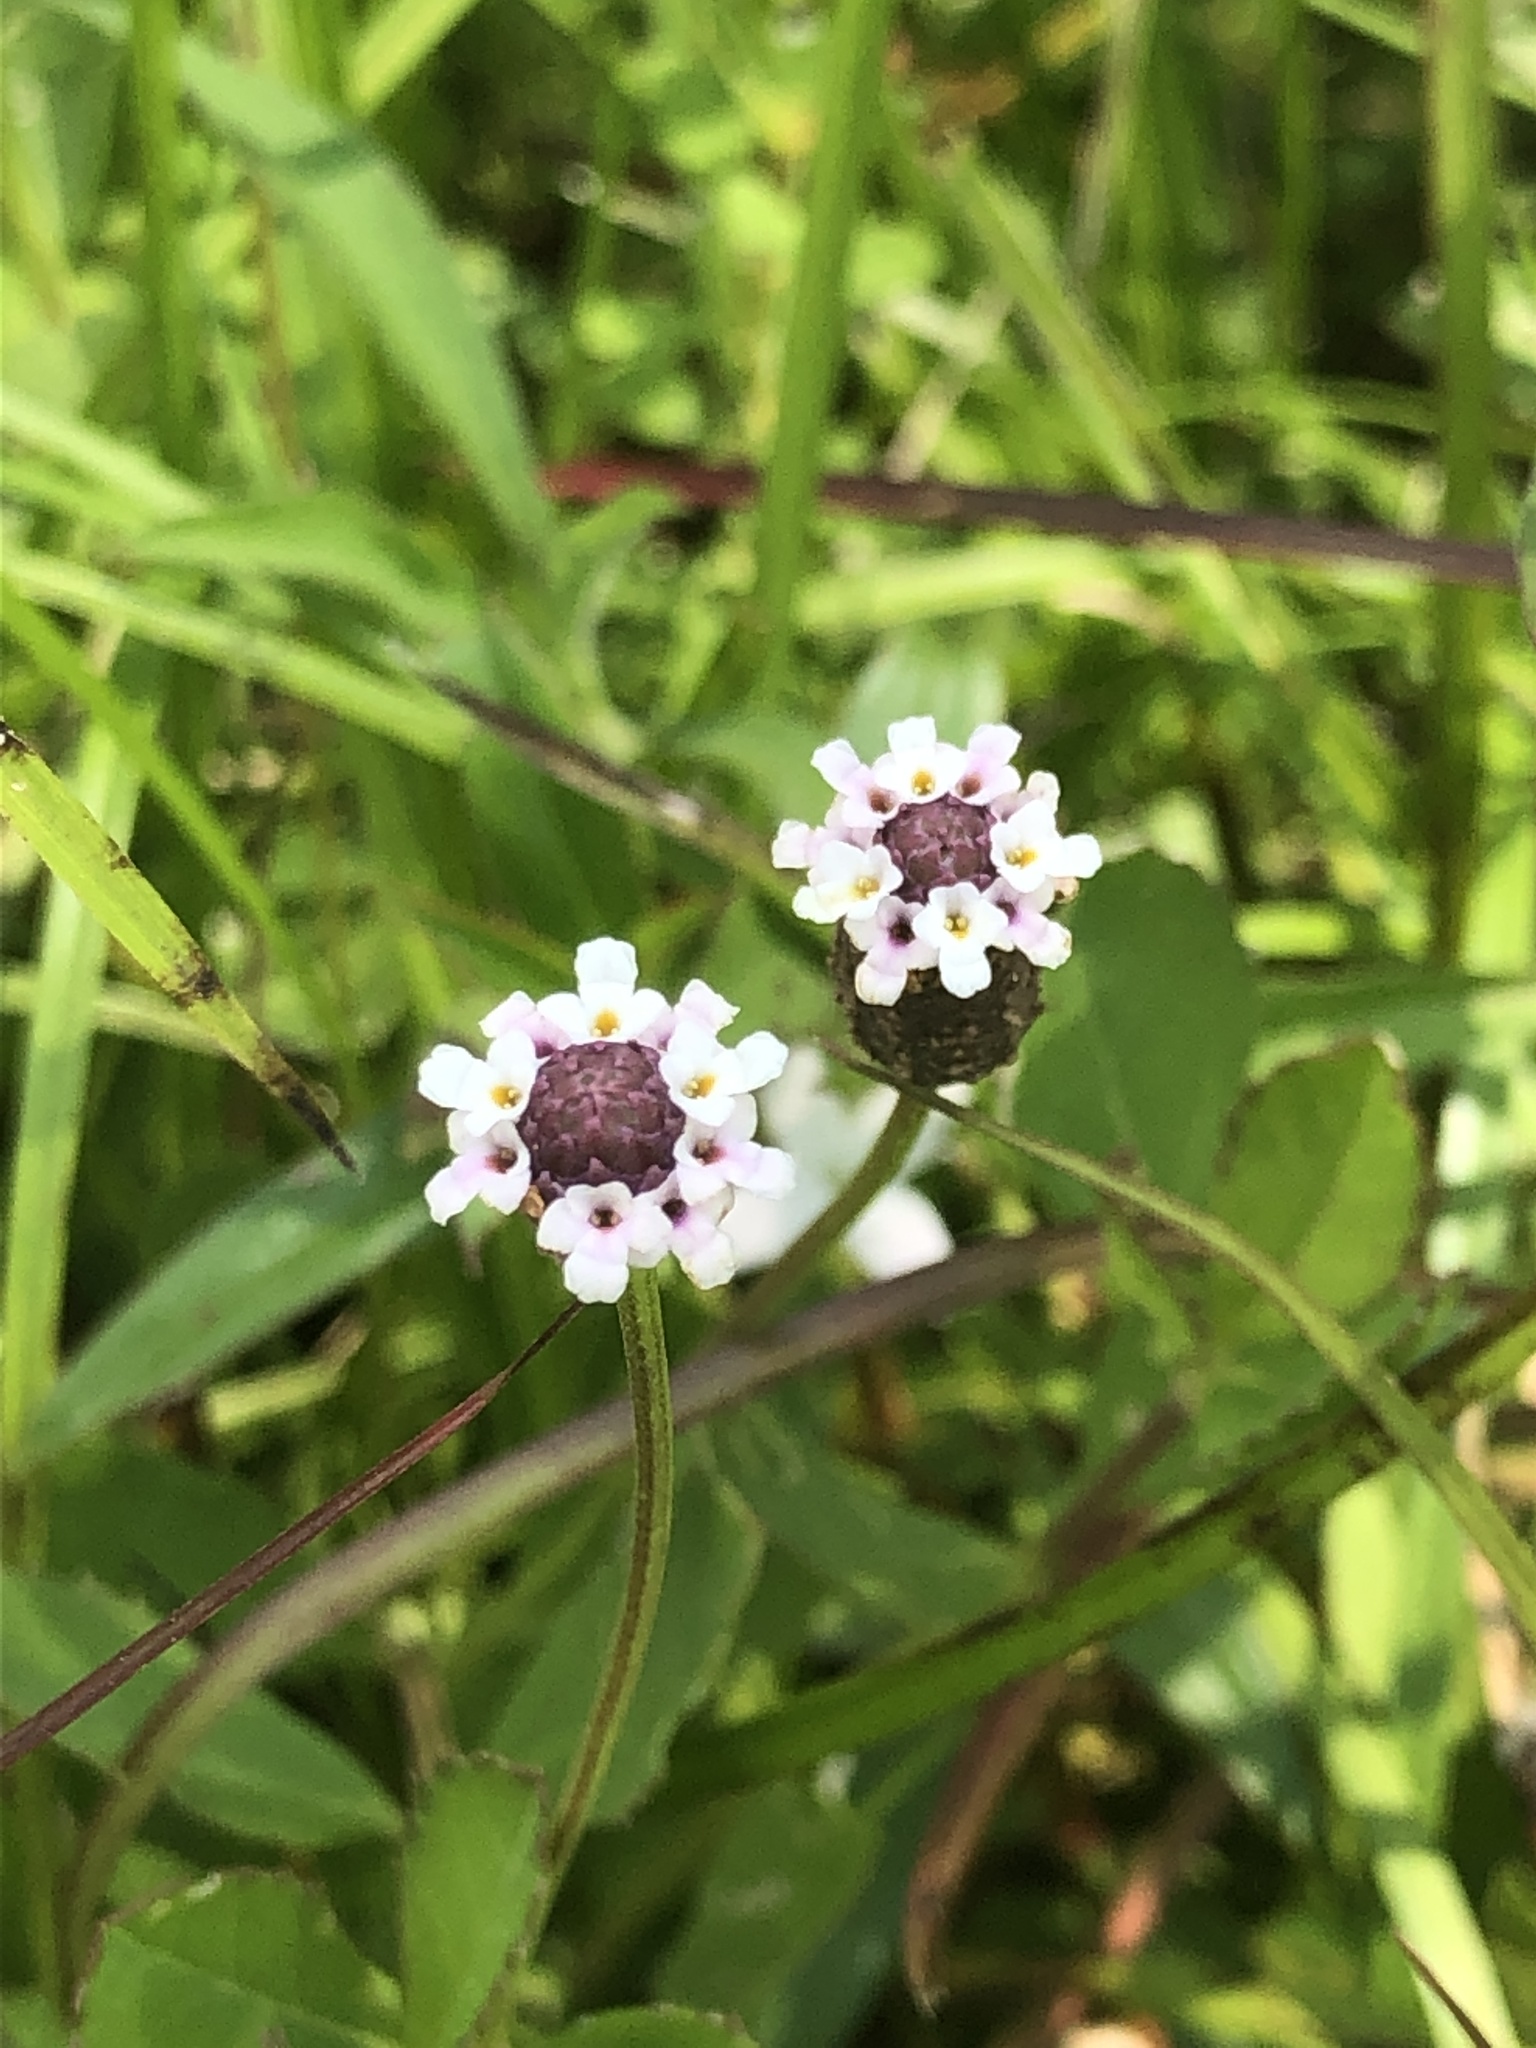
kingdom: Plantae
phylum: Tracheophyta
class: Magnoliopsida
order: Lamiales
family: Verbenaceae
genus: Phyla
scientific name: Phyla lanceolata
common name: Northern fogfruit
